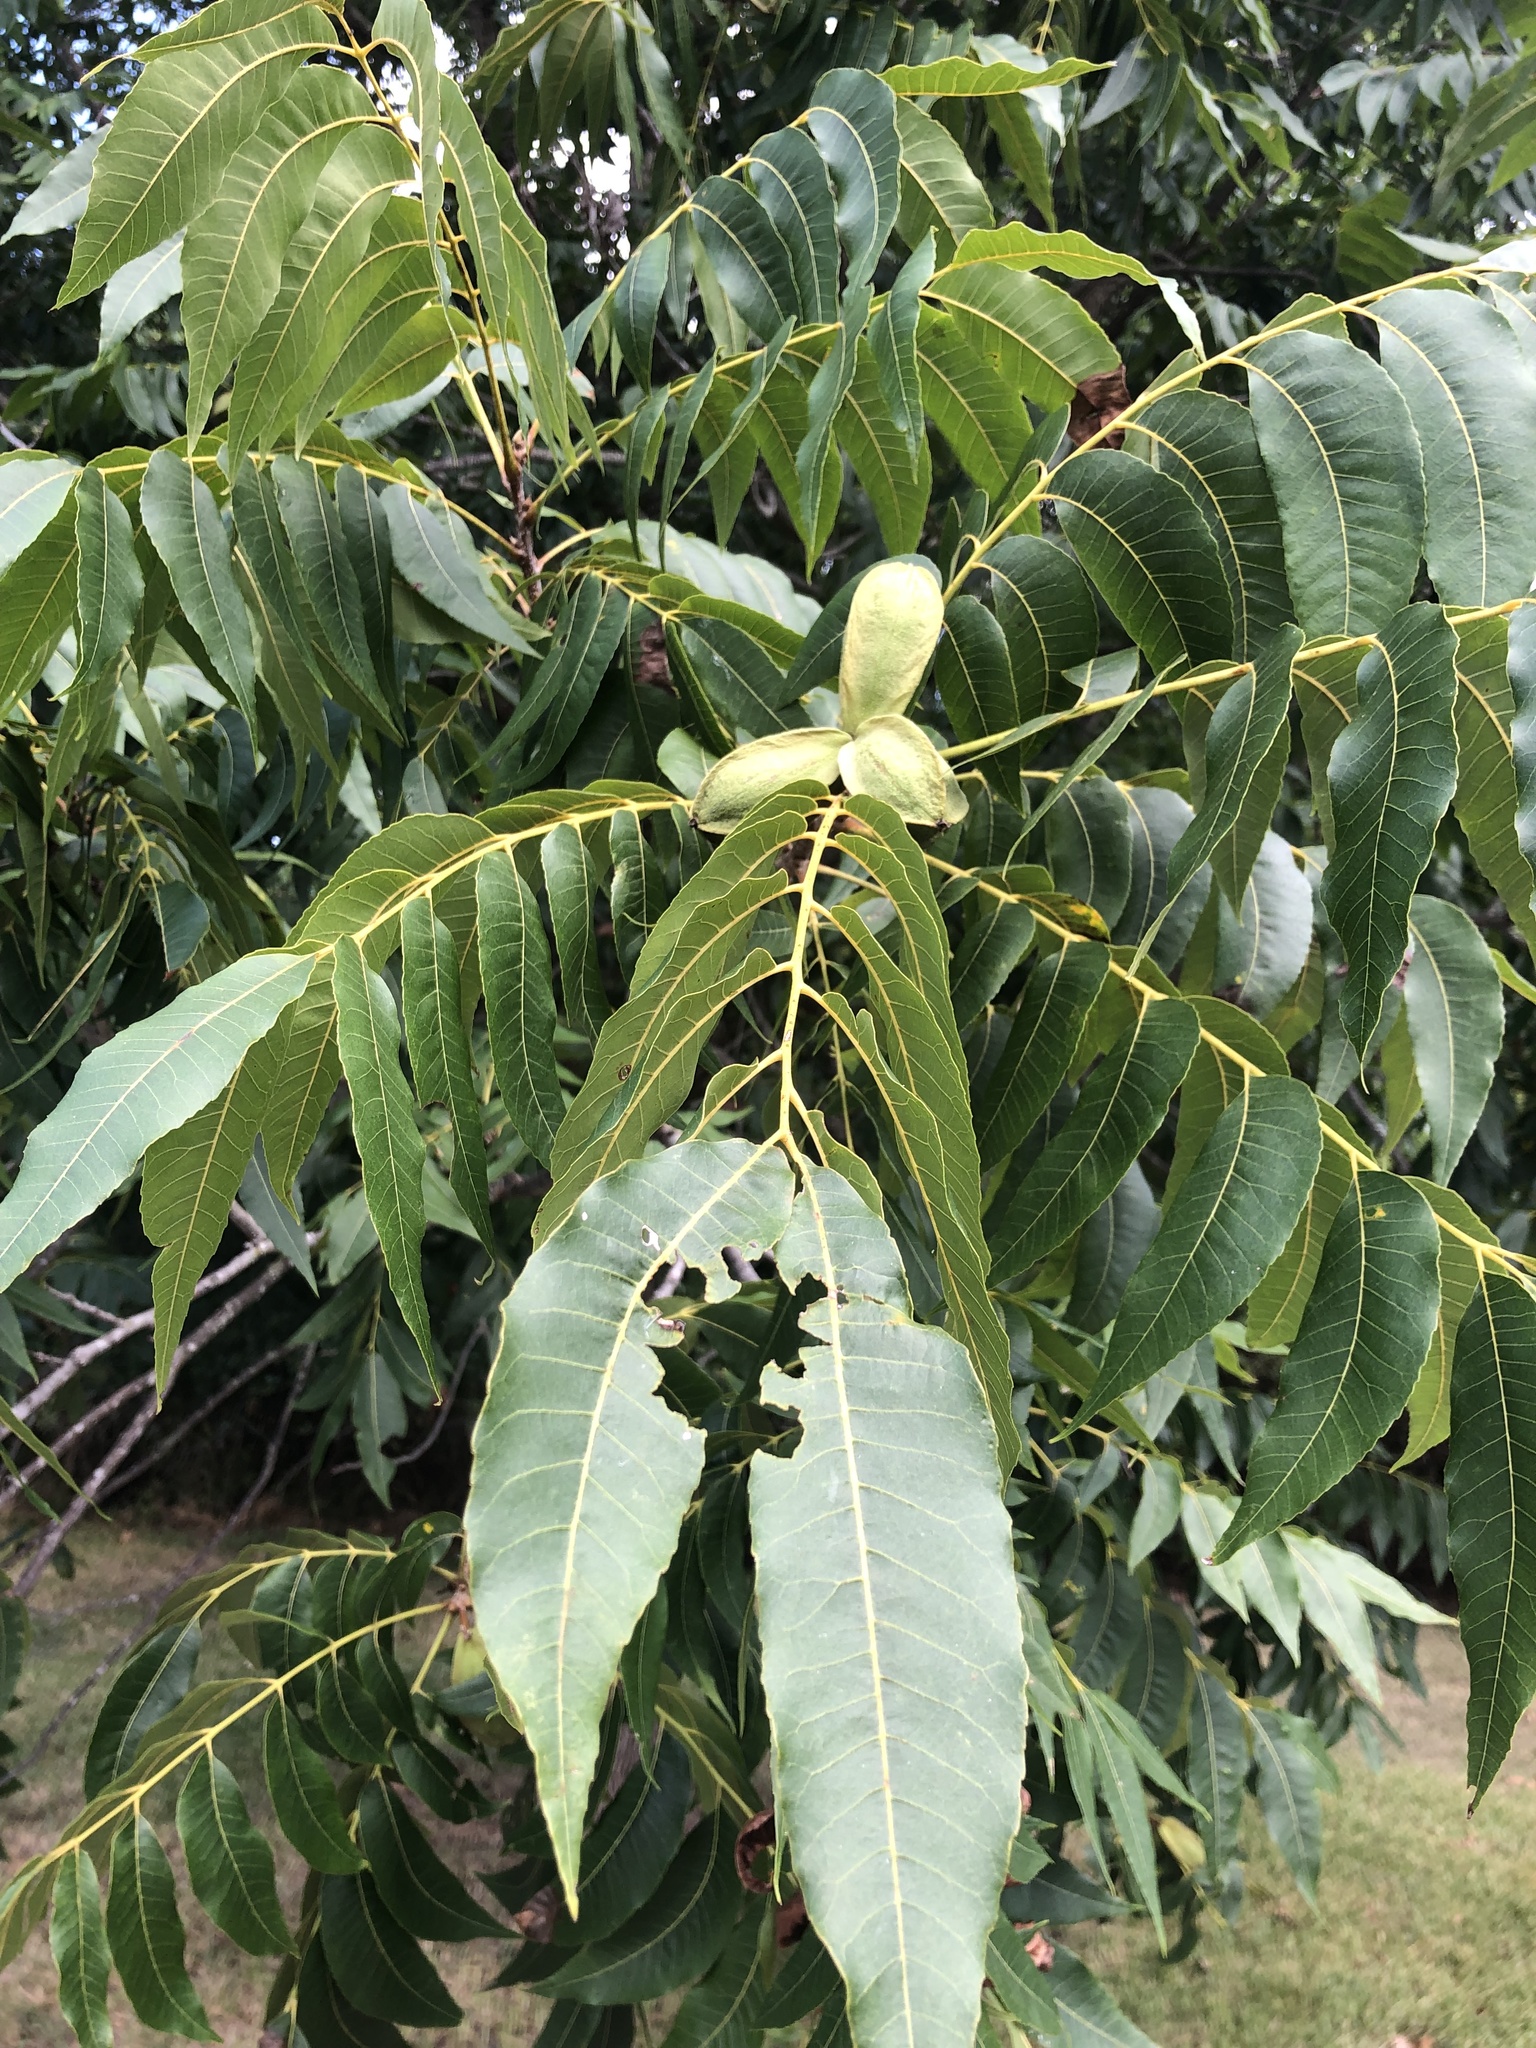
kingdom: Plantae
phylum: Tracheophyta
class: Magnoliopsida
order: Fagales
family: Juglandaceae
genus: Carya
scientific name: Carya illinoinensis
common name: Pecan
